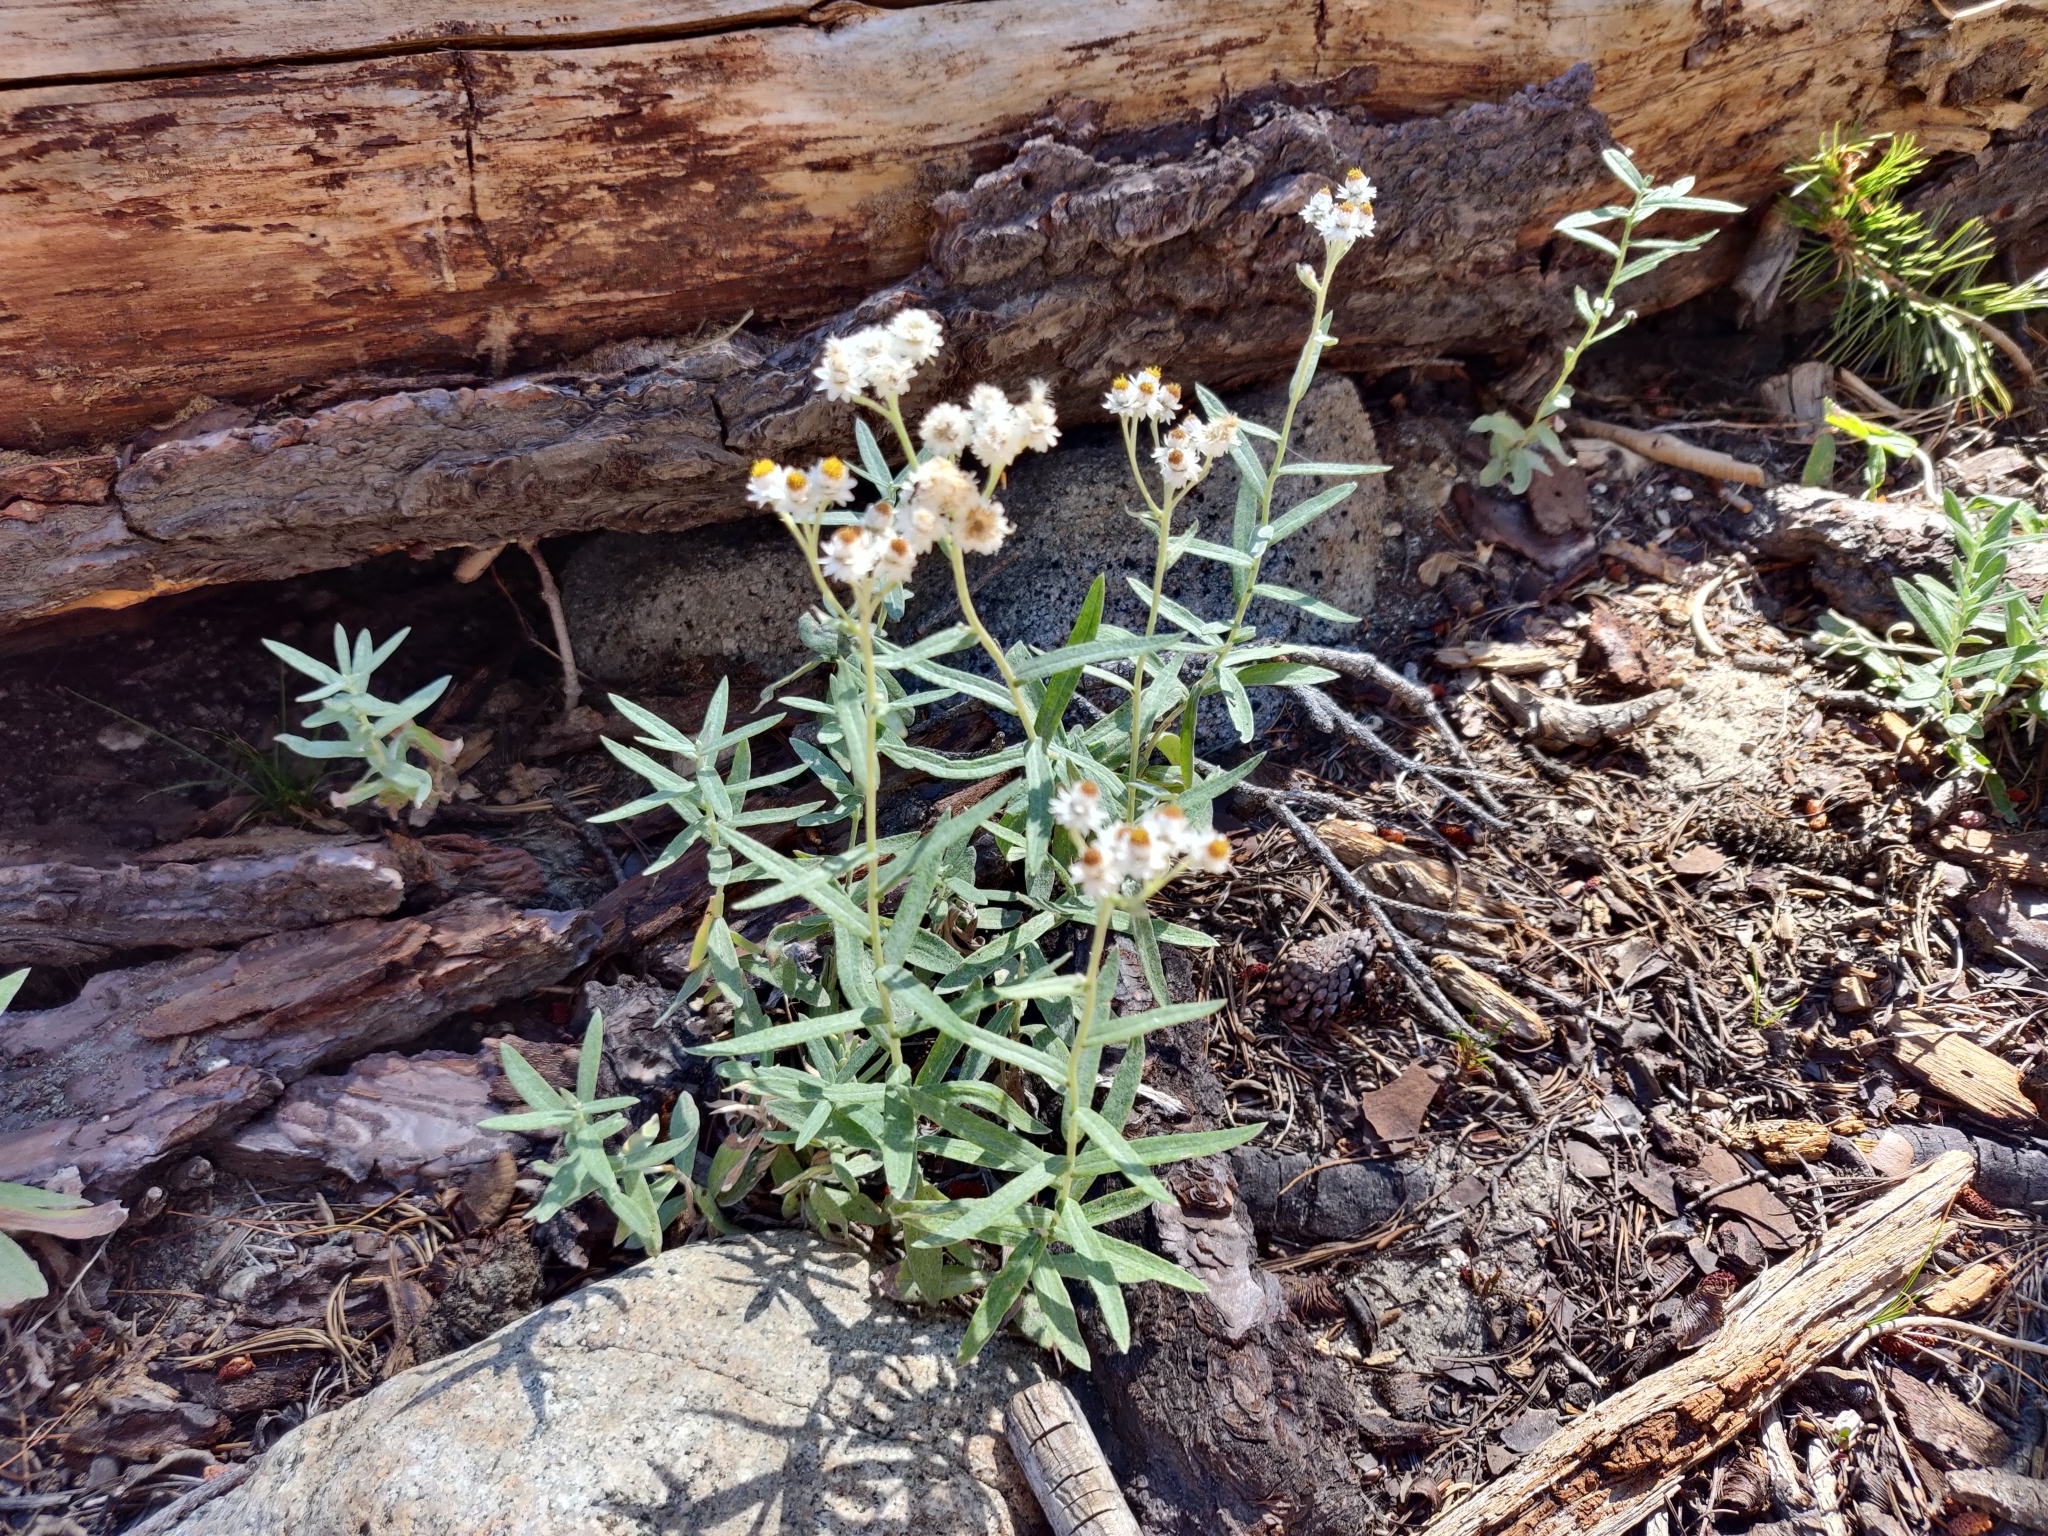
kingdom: Plantae
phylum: Tracheophyta
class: Magnoliopsida
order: Asterales
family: Asteraceae
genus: Anaphalis
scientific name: Anaphalis margaritacea
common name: Pearly everlasting
